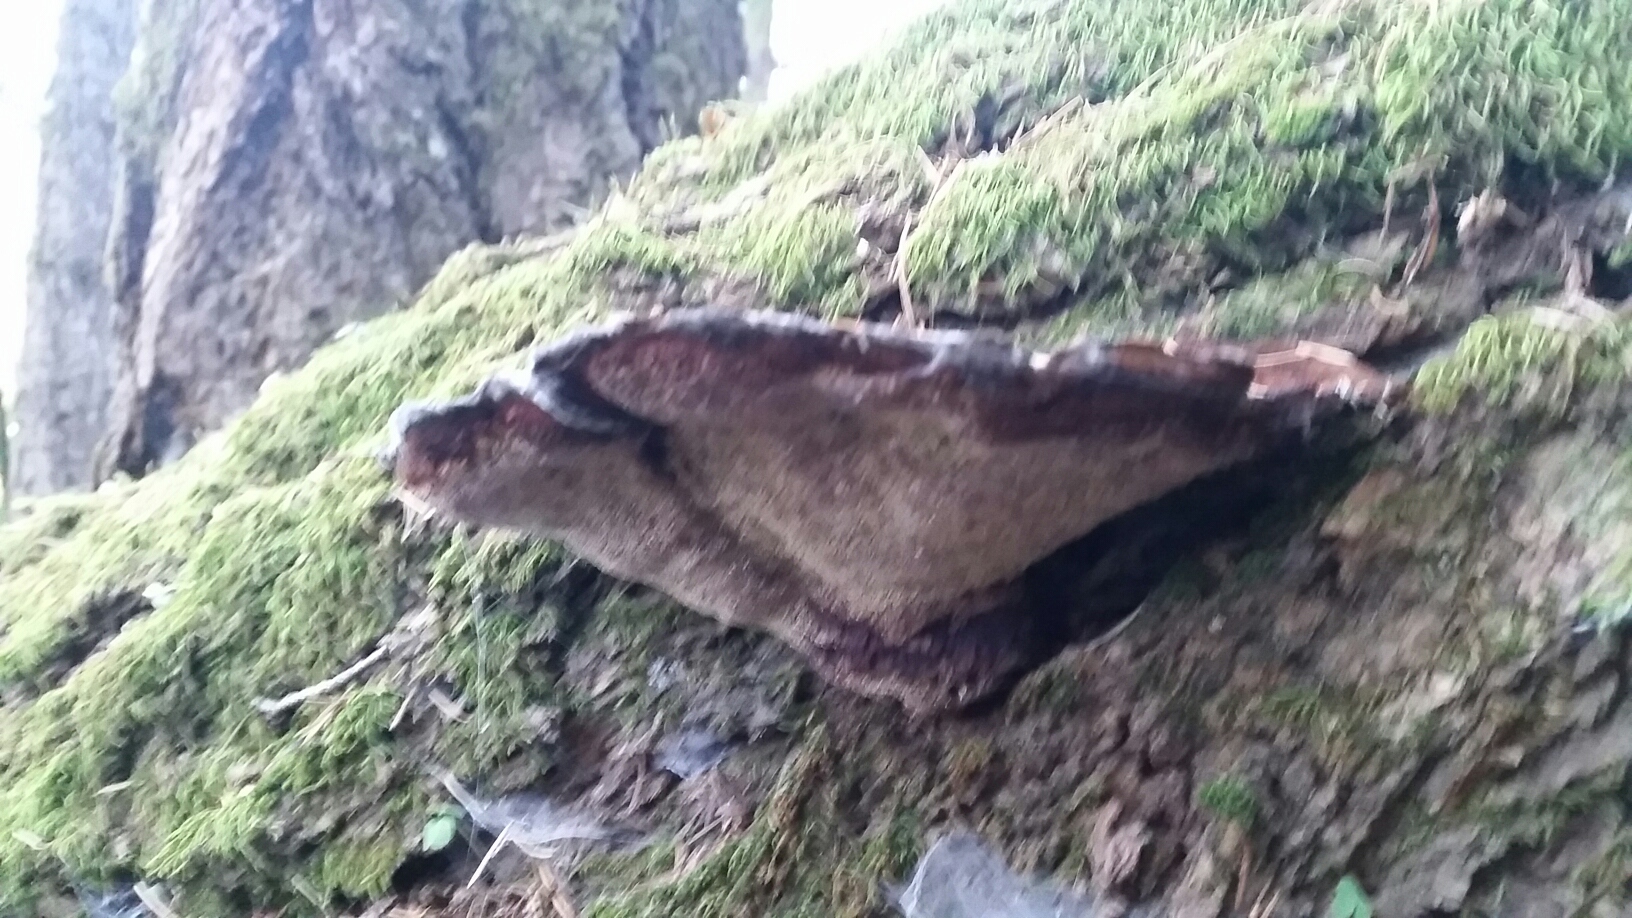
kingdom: Fungi
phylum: Basidiomycota
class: Agaricomycetes
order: Hymenochaetales
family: Hymenochaetaceae
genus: Porodaedalea
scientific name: Porodaedalea pini
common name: Pine bracket
